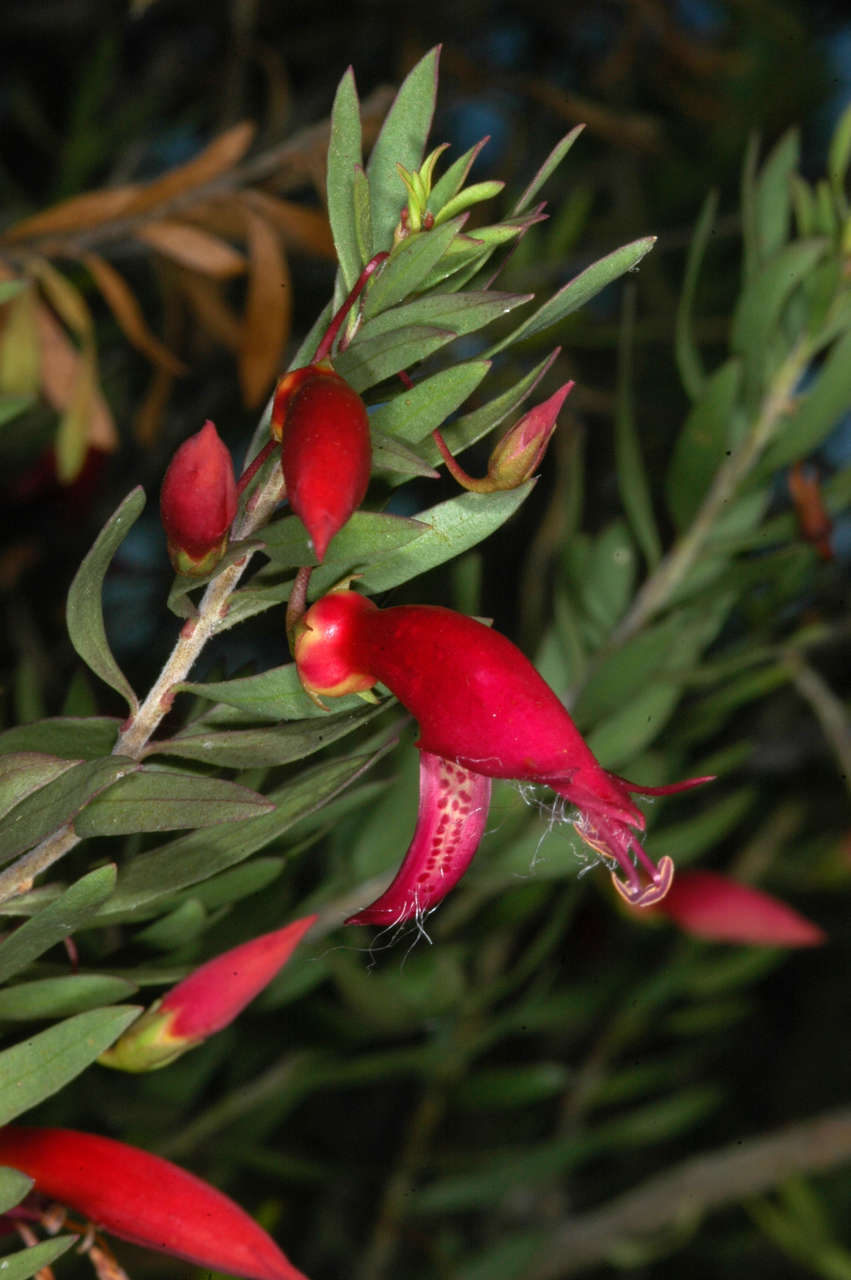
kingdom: Plantae
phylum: Tracheophyta
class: Magnoliopsida
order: Lamiales
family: Scrophulariaceae
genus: Eremophila
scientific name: Eremophila maculata
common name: Fuchsiabush
